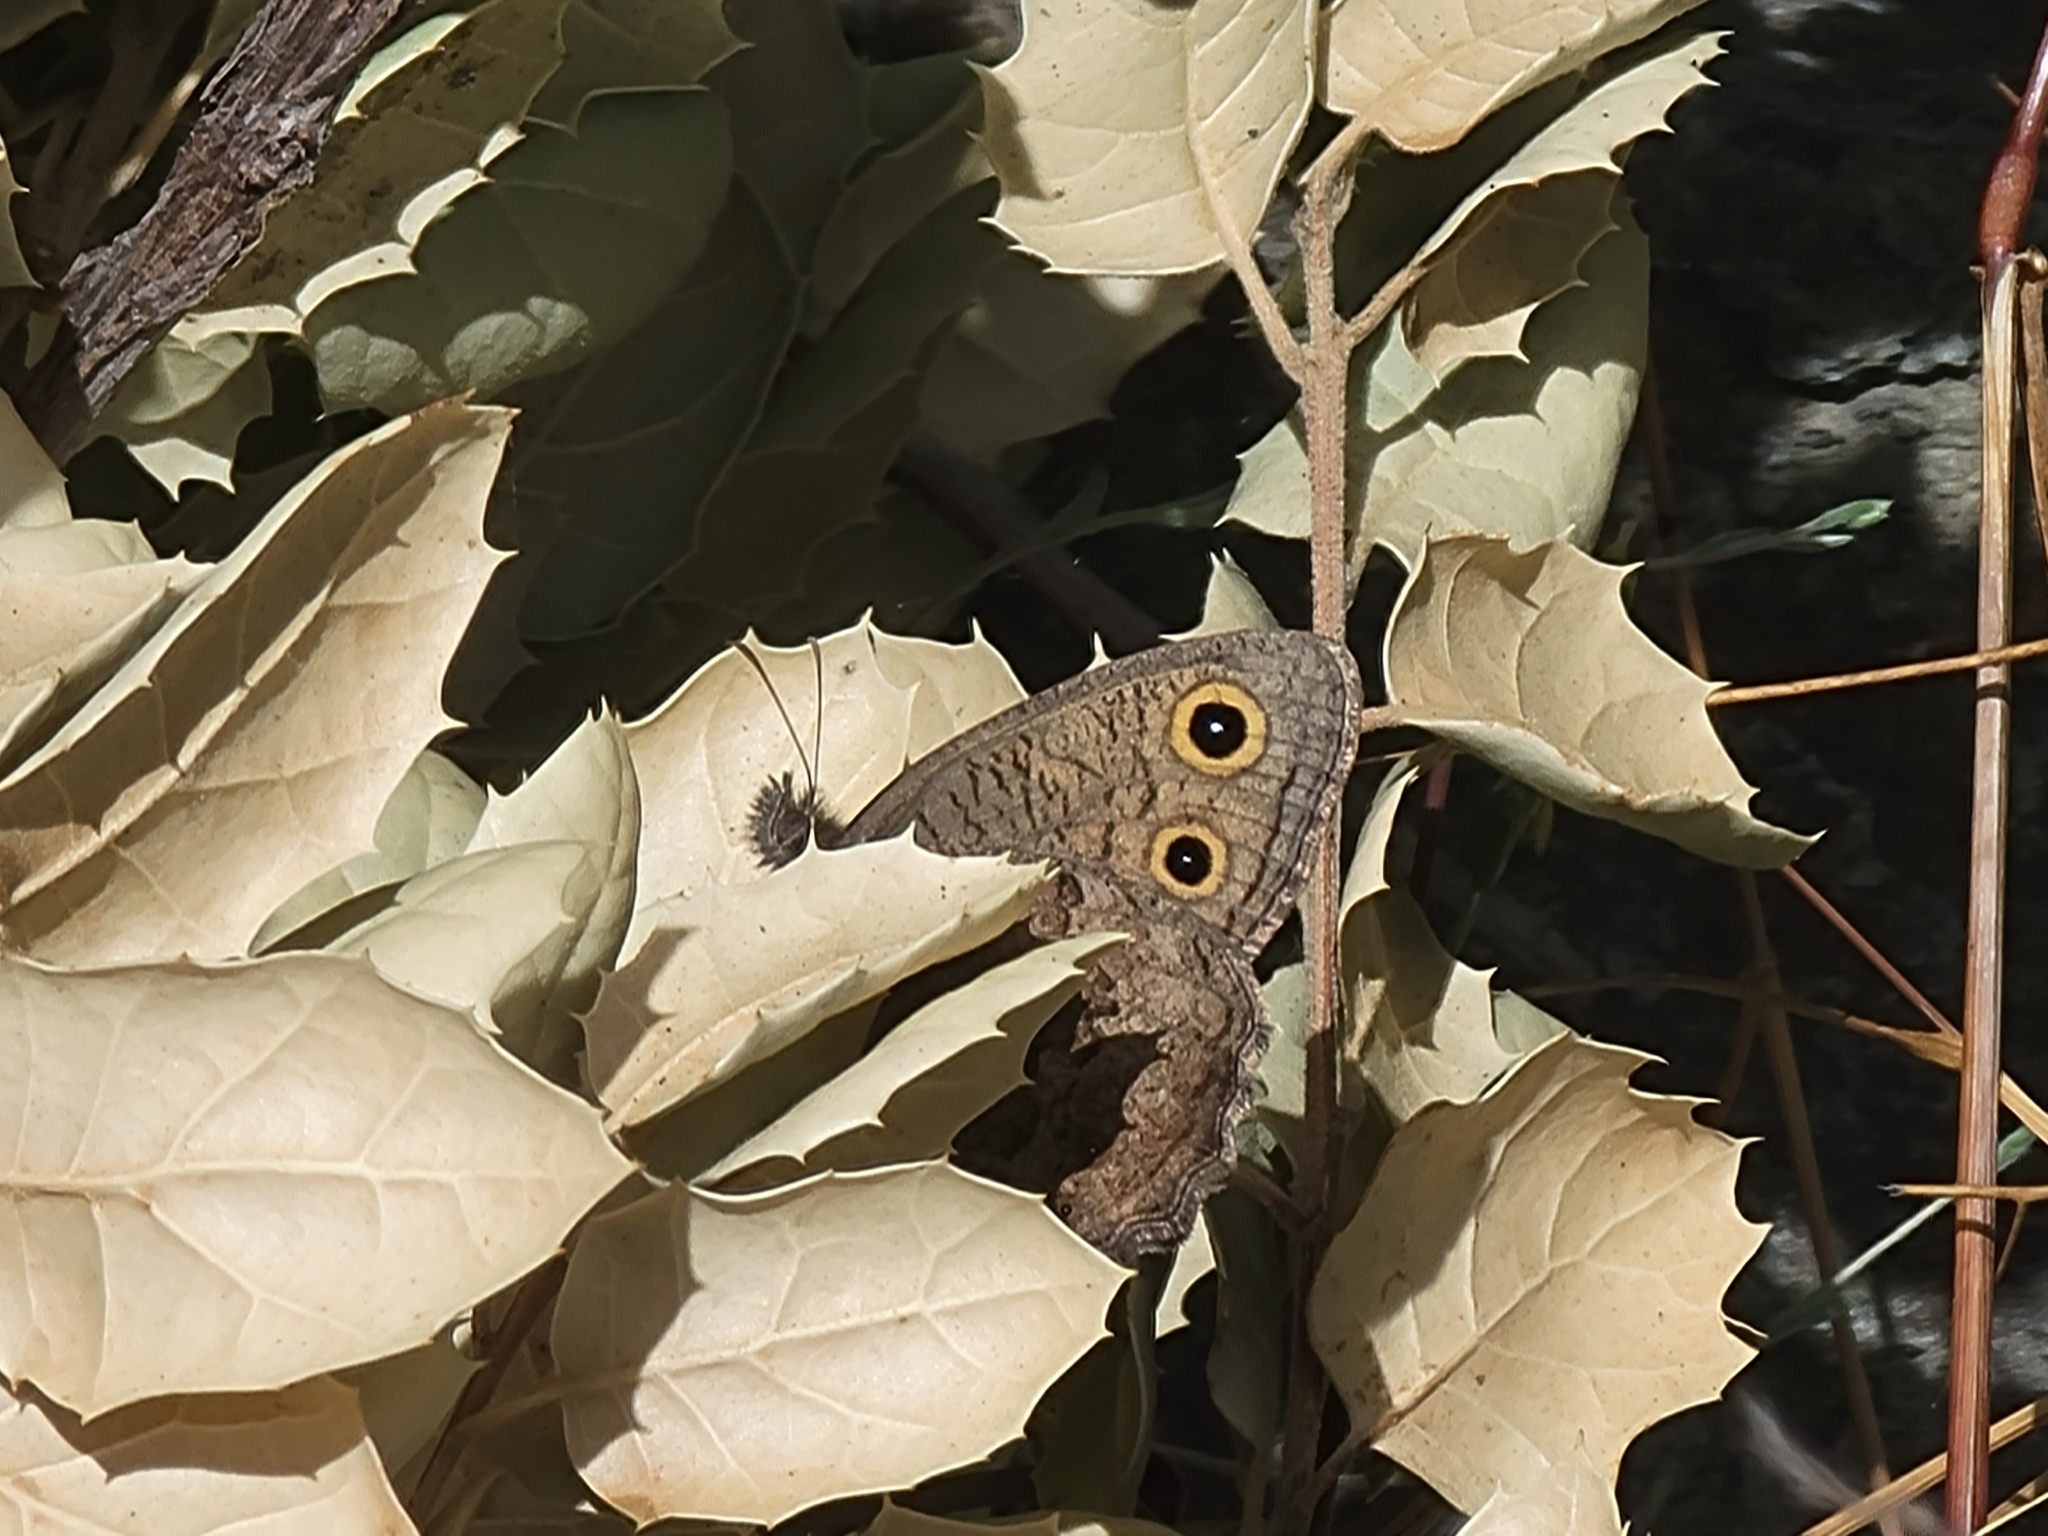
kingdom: Animalia
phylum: Arthropoda
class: Insecta
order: Lepidoptera
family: Nymphalidae
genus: Cercyonis
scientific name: Cercyonis sthenele
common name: Great basin wood-nymph
